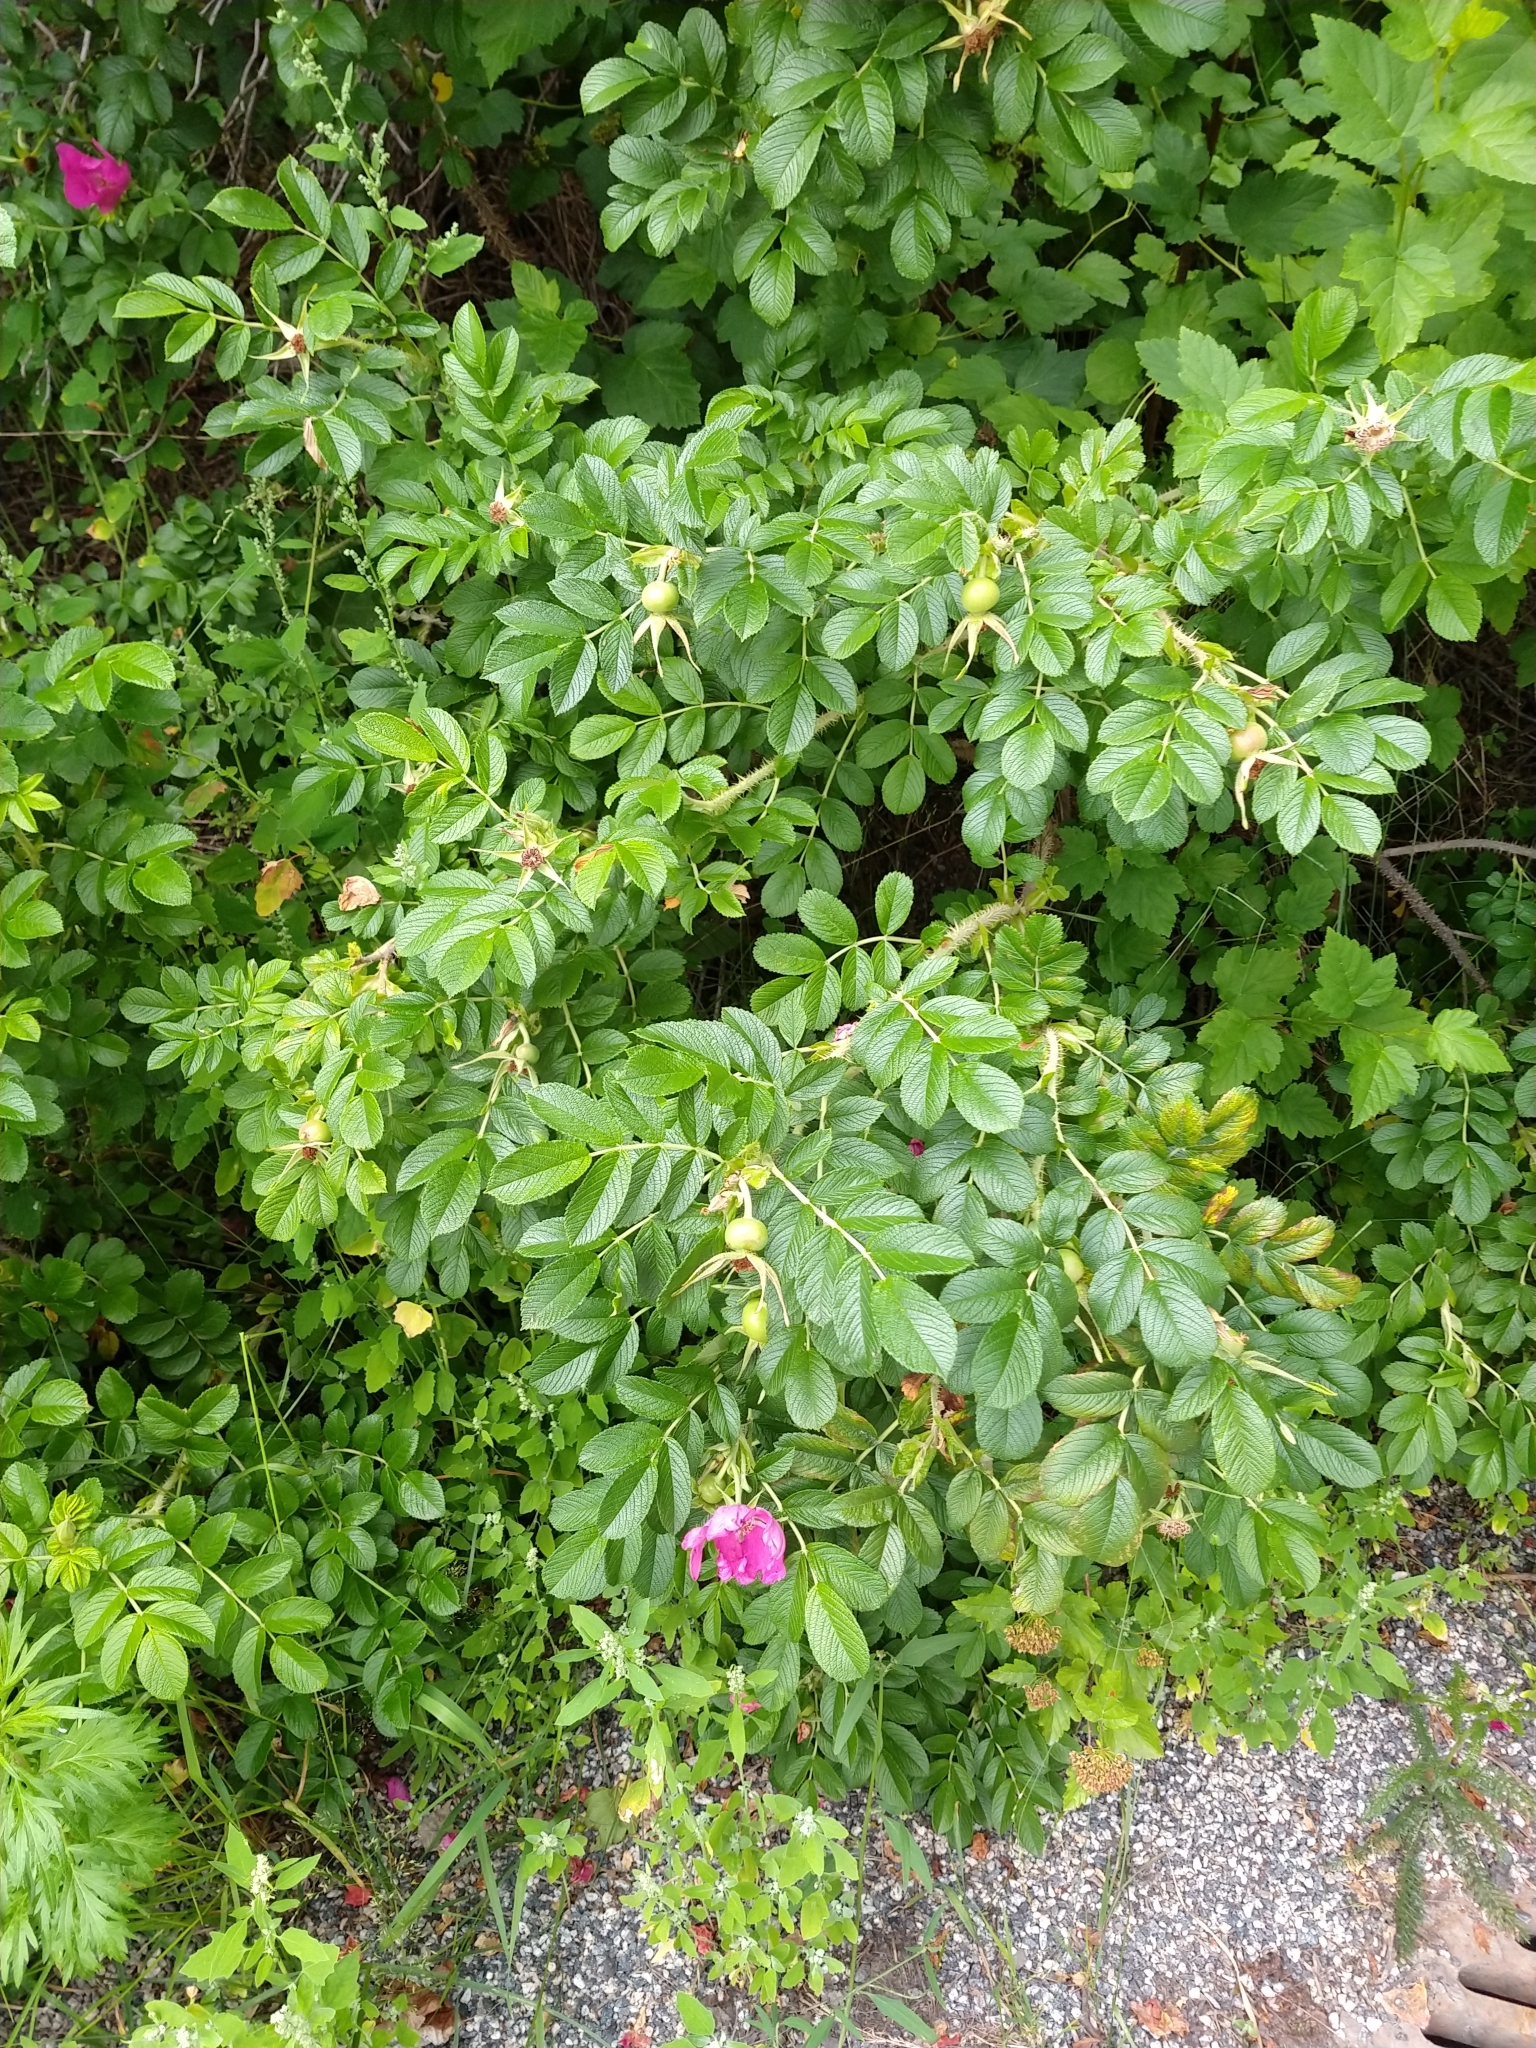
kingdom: Plantae
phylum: Tracheophyta
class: Magnoliopsida
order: Rosales
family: Rosaceae
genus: Rosa
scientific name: Rosa rugosa
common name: Japanese rose
